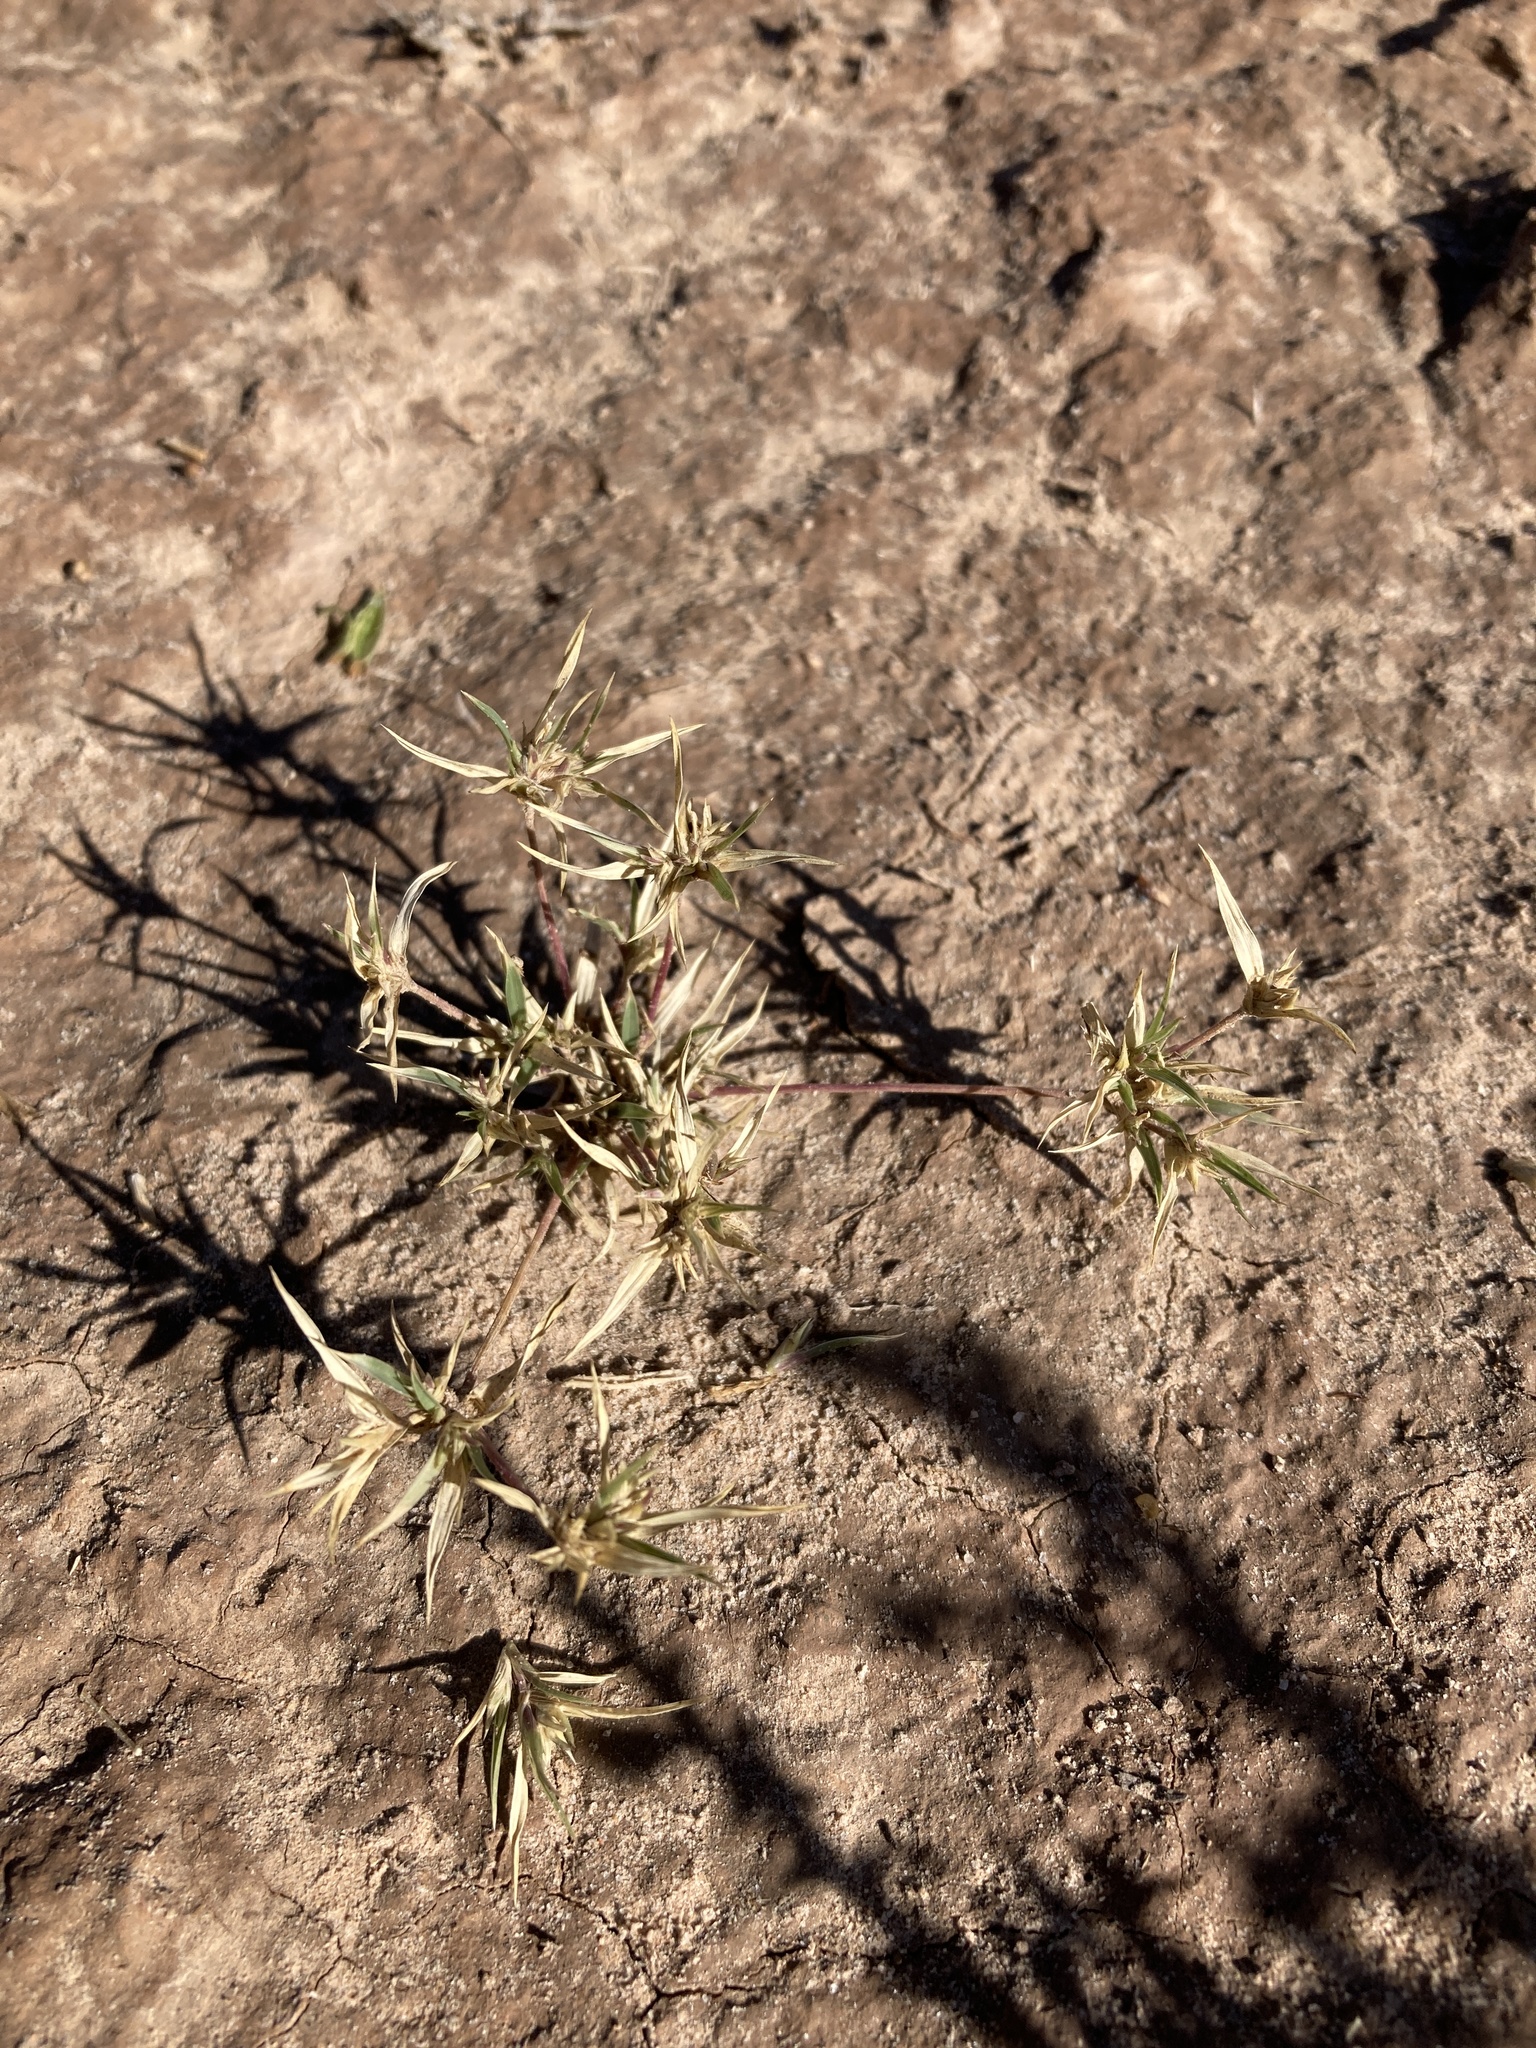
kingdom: Plantae
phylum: Tracheophyta
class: Liliopsida
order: Poales
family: Poaceae
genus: Munroa
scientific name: Munroa squarrosa
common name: False buffalo grass
